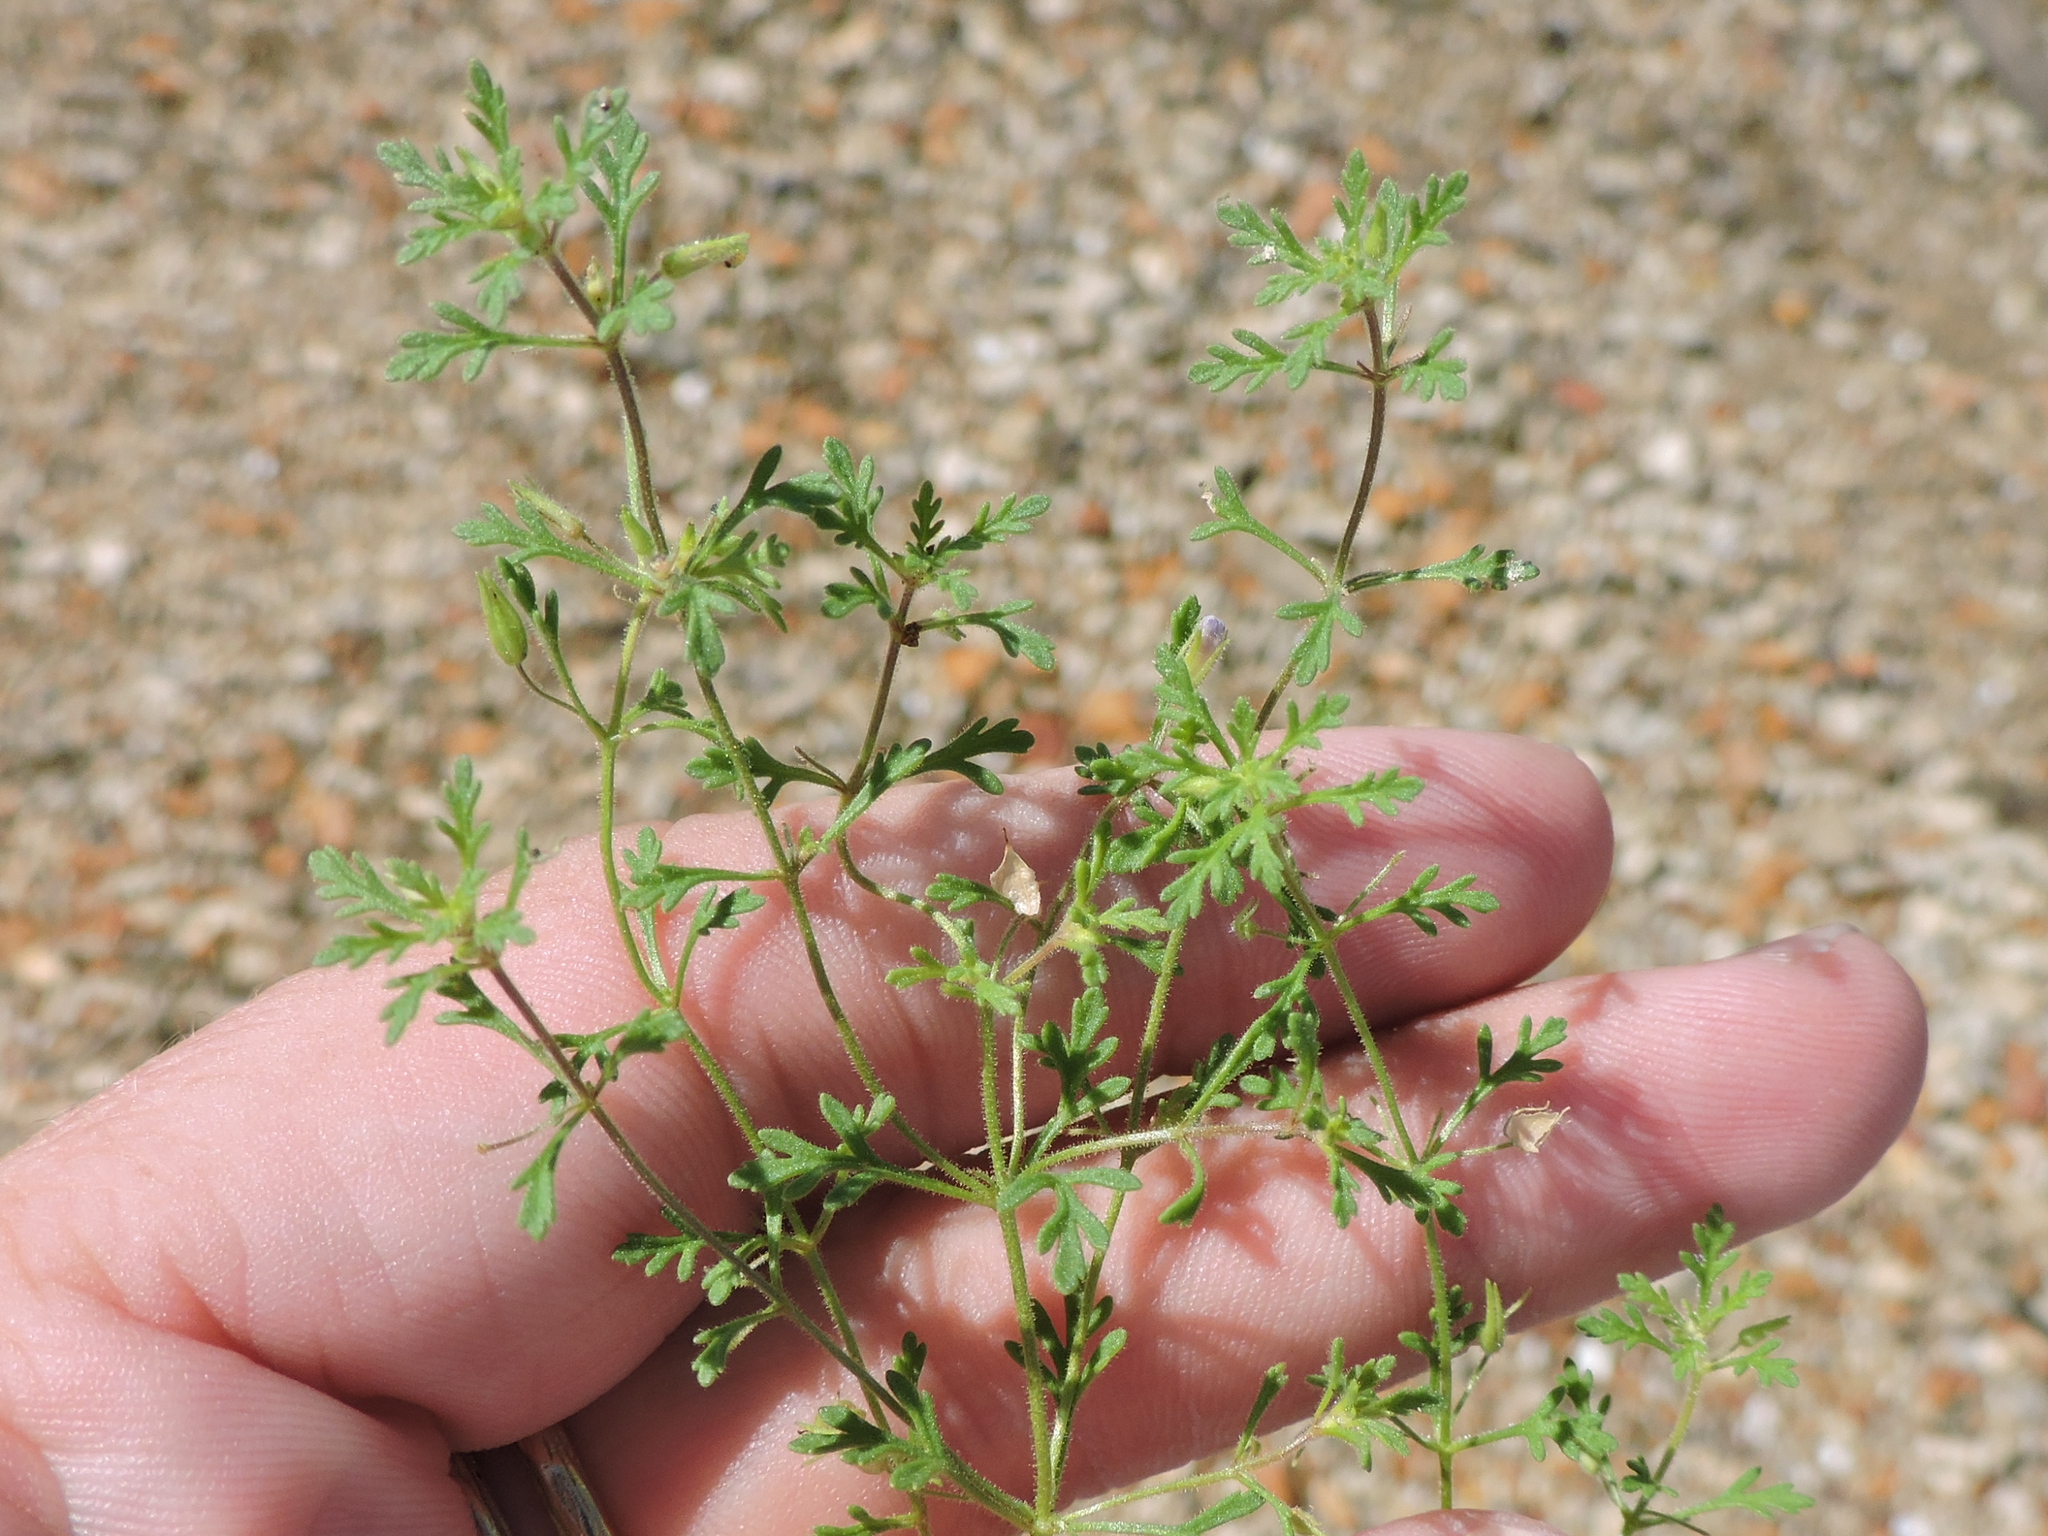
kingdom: Plantae
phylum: Tracheophyta
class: Magnoliopsida
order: Lamiales
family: Plantaginaceae
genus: Leucospora
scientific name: Leucospora multifida
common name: Narrow-leaf paleseed
